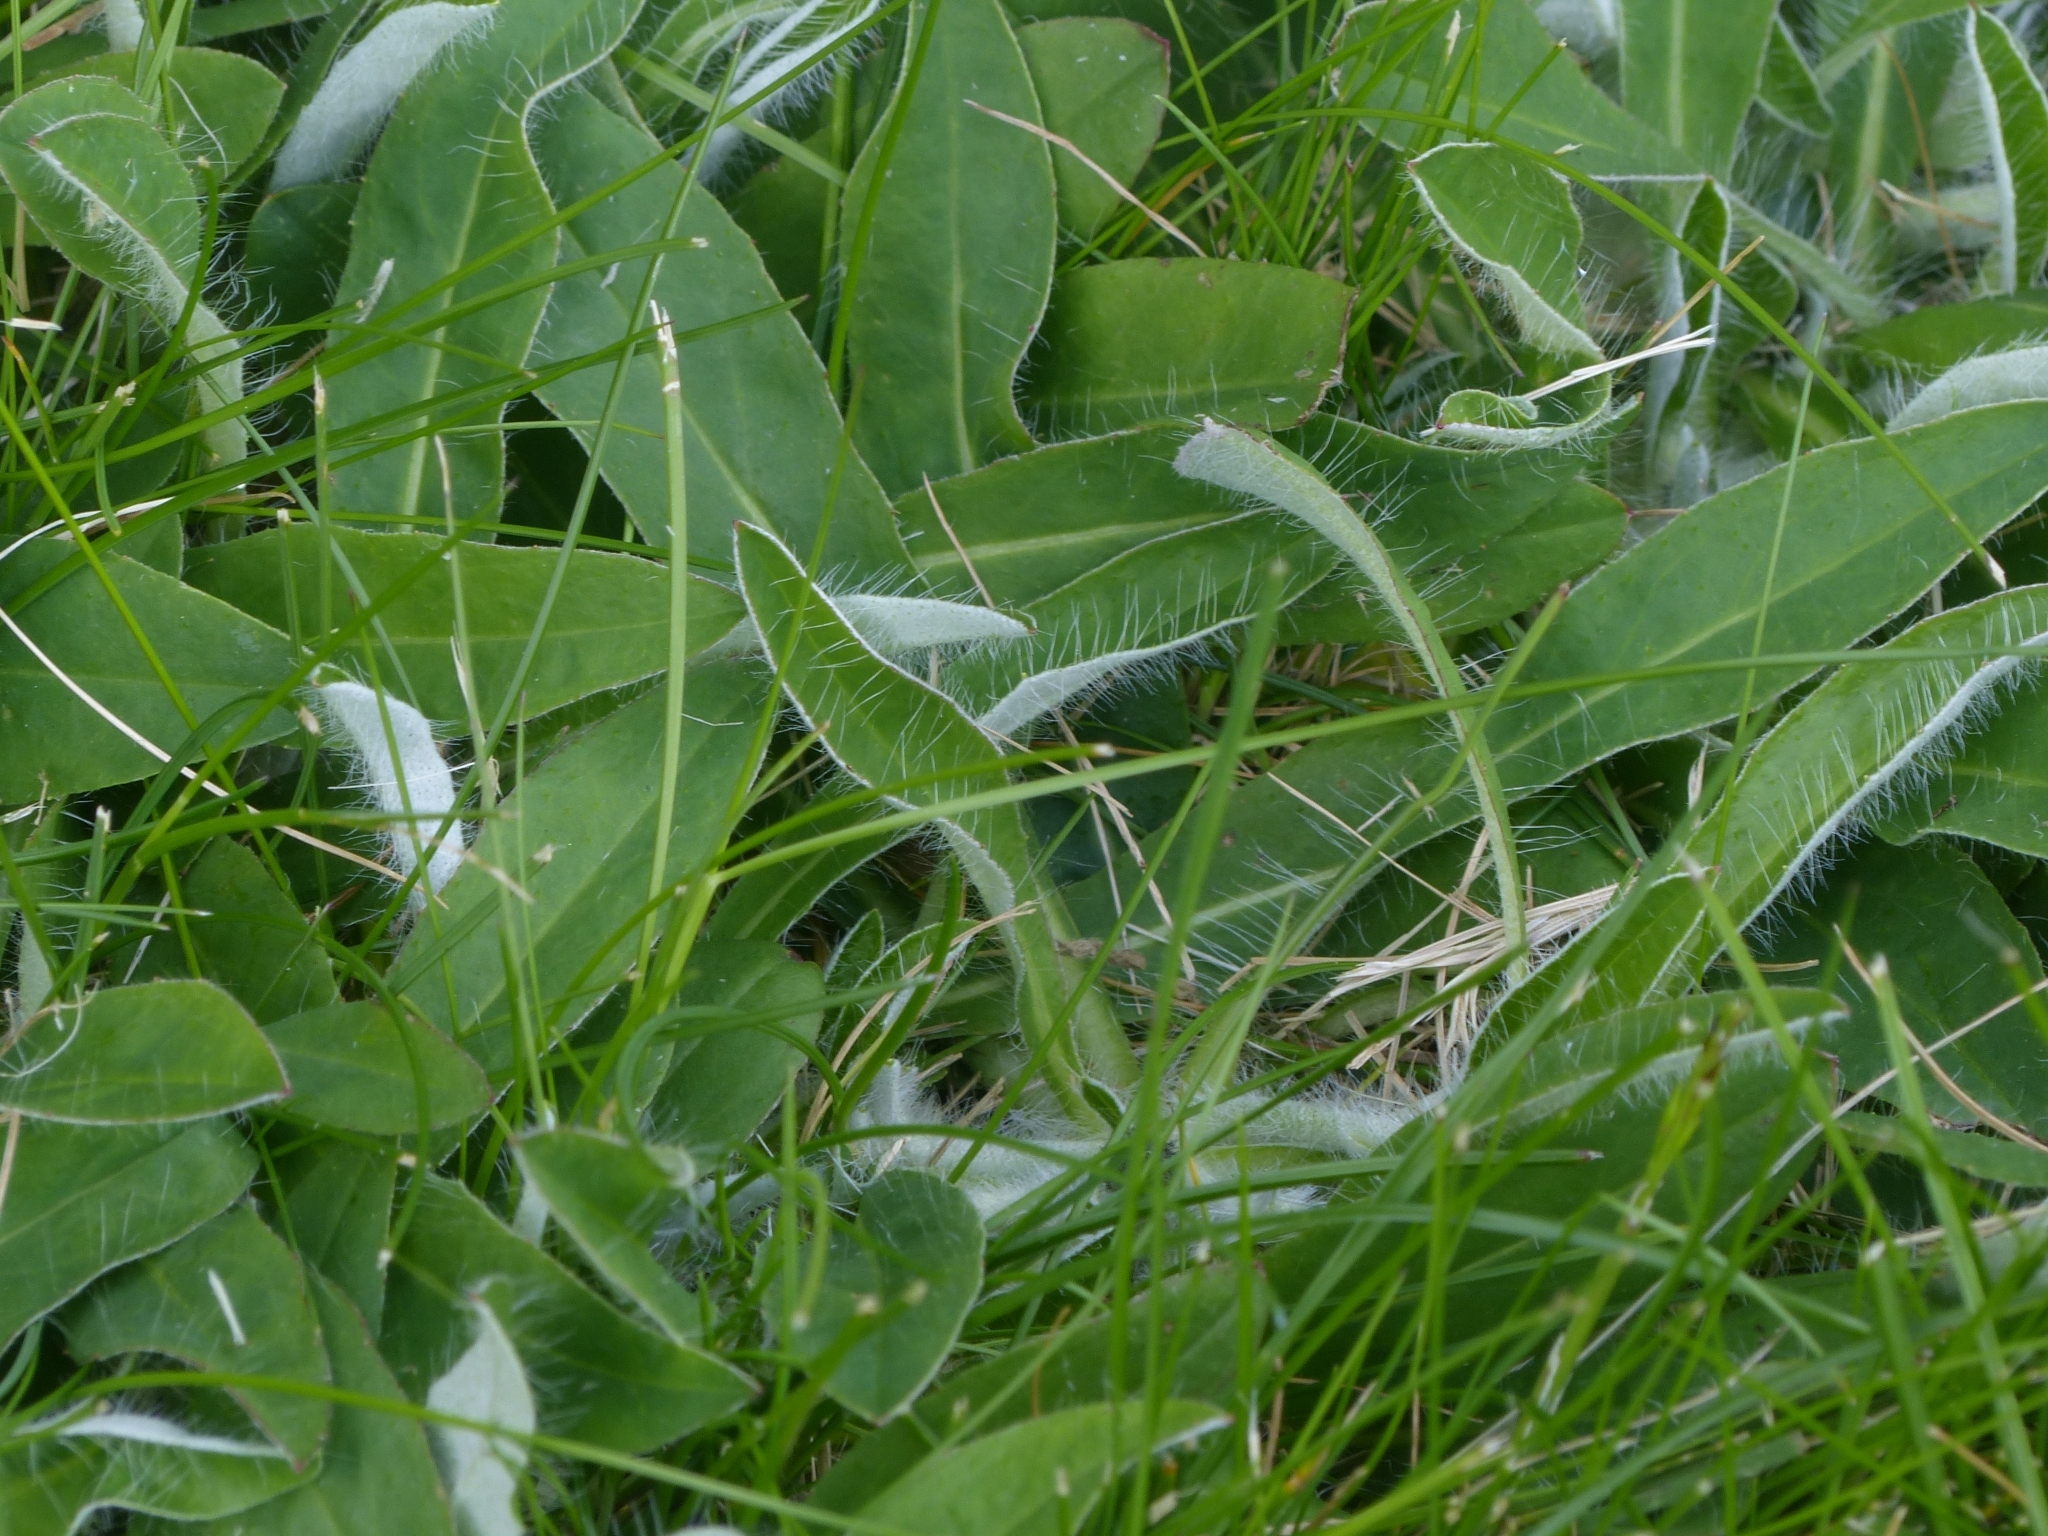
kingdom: Plantae
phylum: Tracheophyta
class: Magnoliopsida
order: Asterales
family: Asteraceae
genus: Pilosella
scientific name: Pilosella officinarum
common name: Mouse-ear hawkweed
